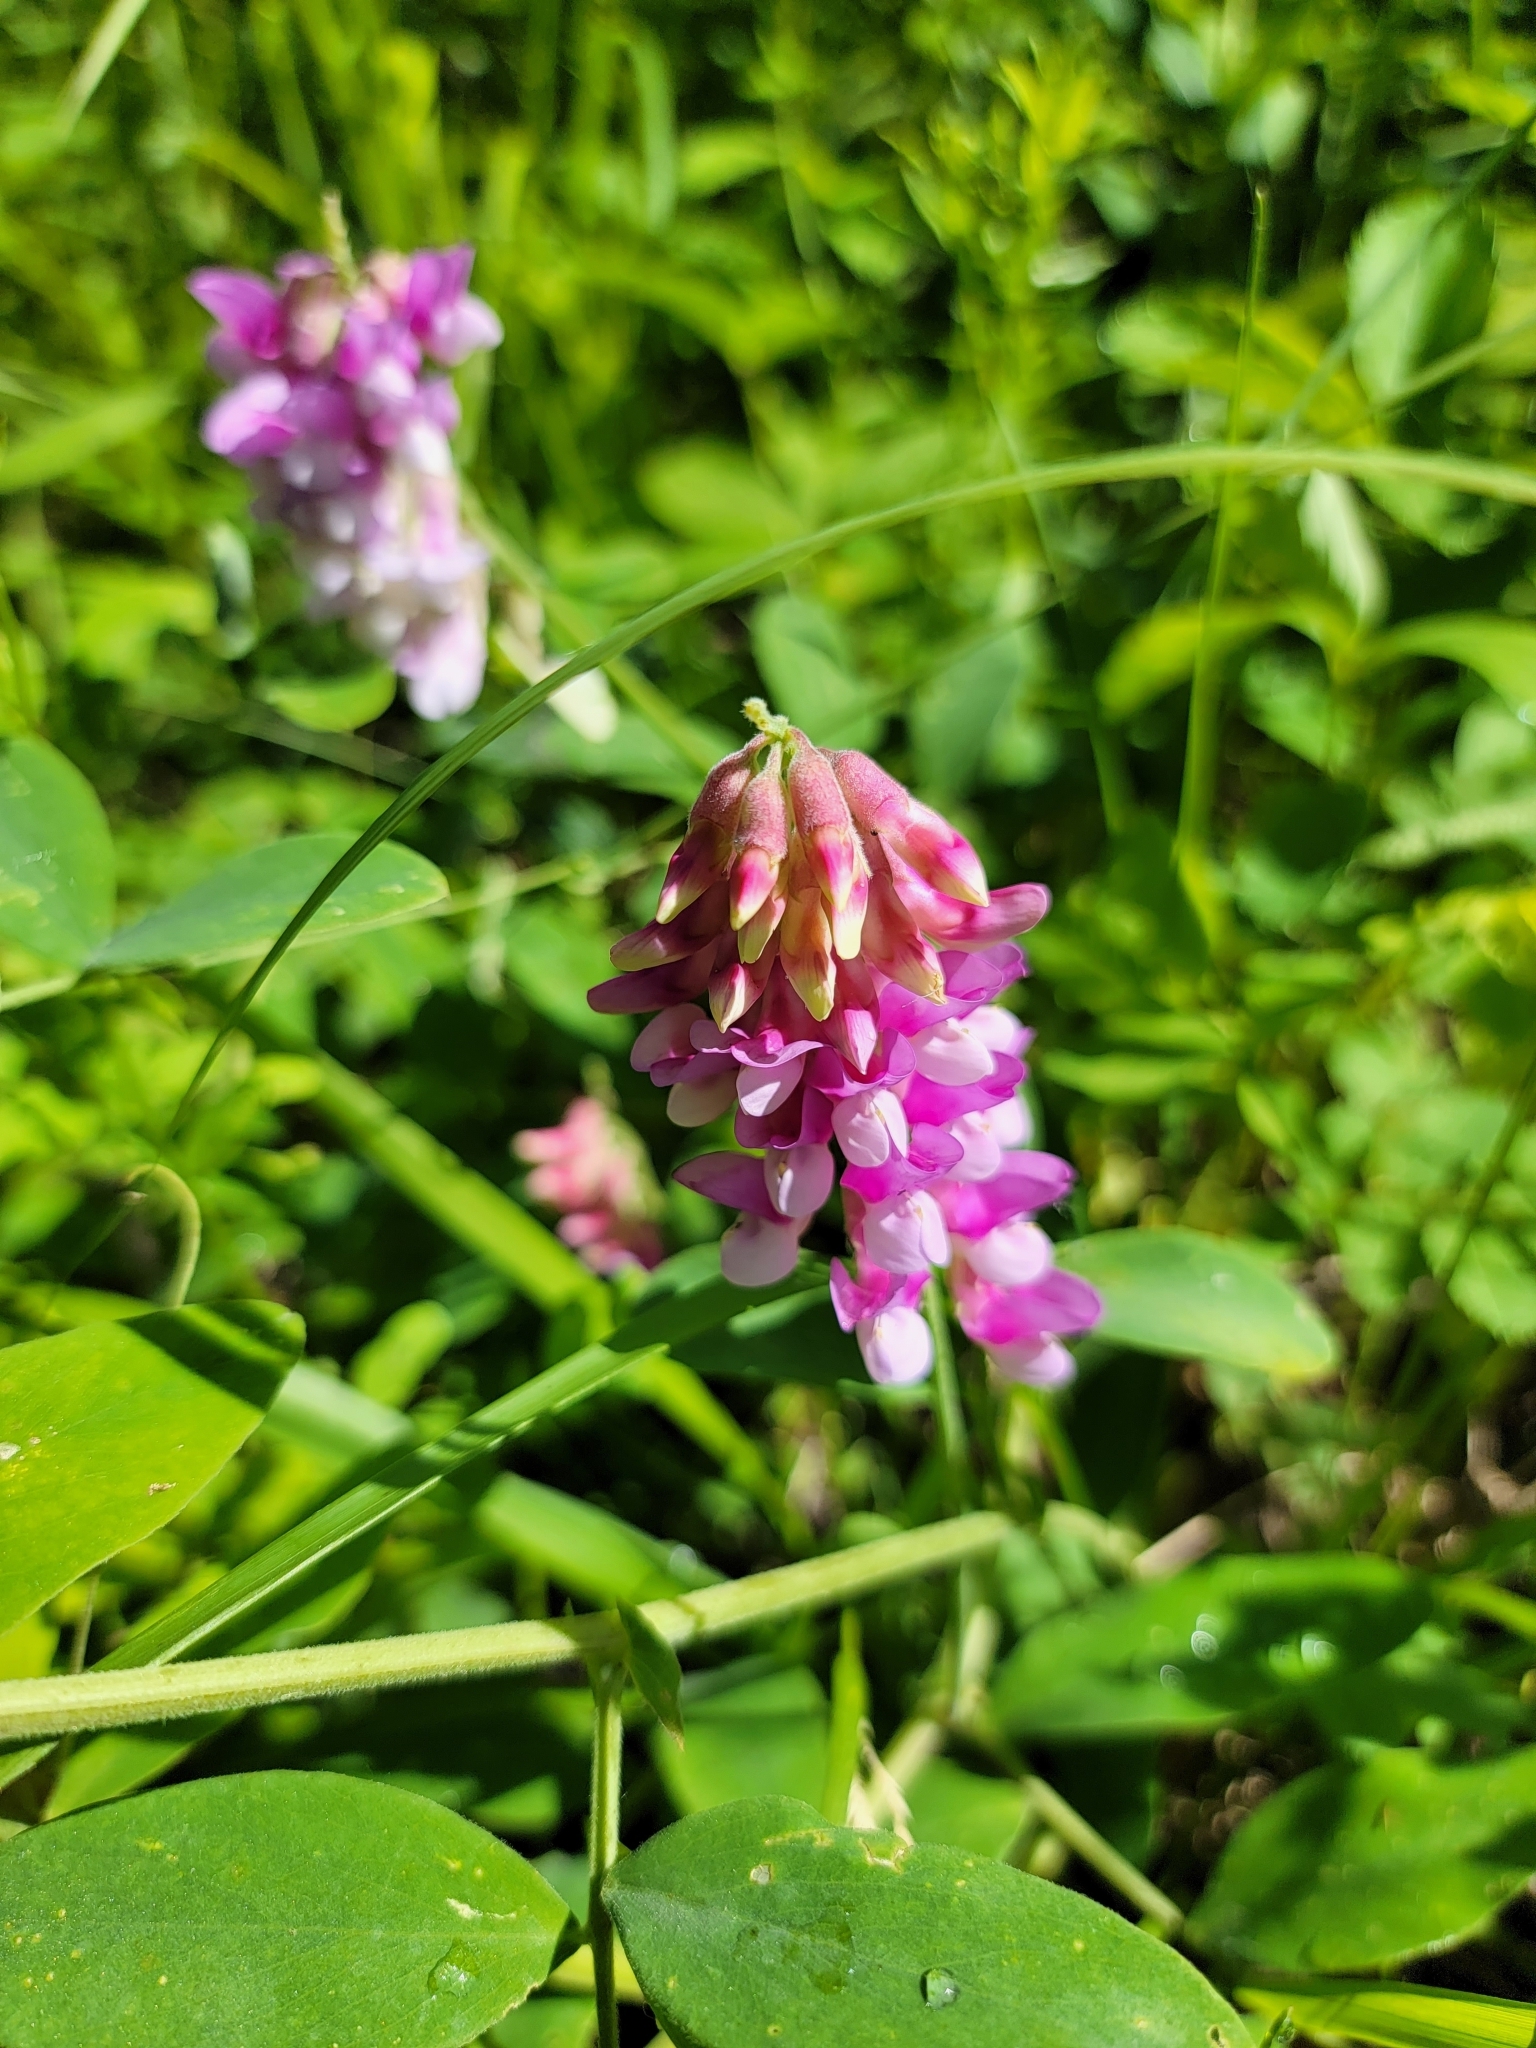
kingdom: Plantae
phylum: Tracheophyta
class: Magnoliopsida
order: Fabales
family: Fabaceae
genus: Lathyrus
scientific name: Lathyrus venosus
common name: Forest-pea
